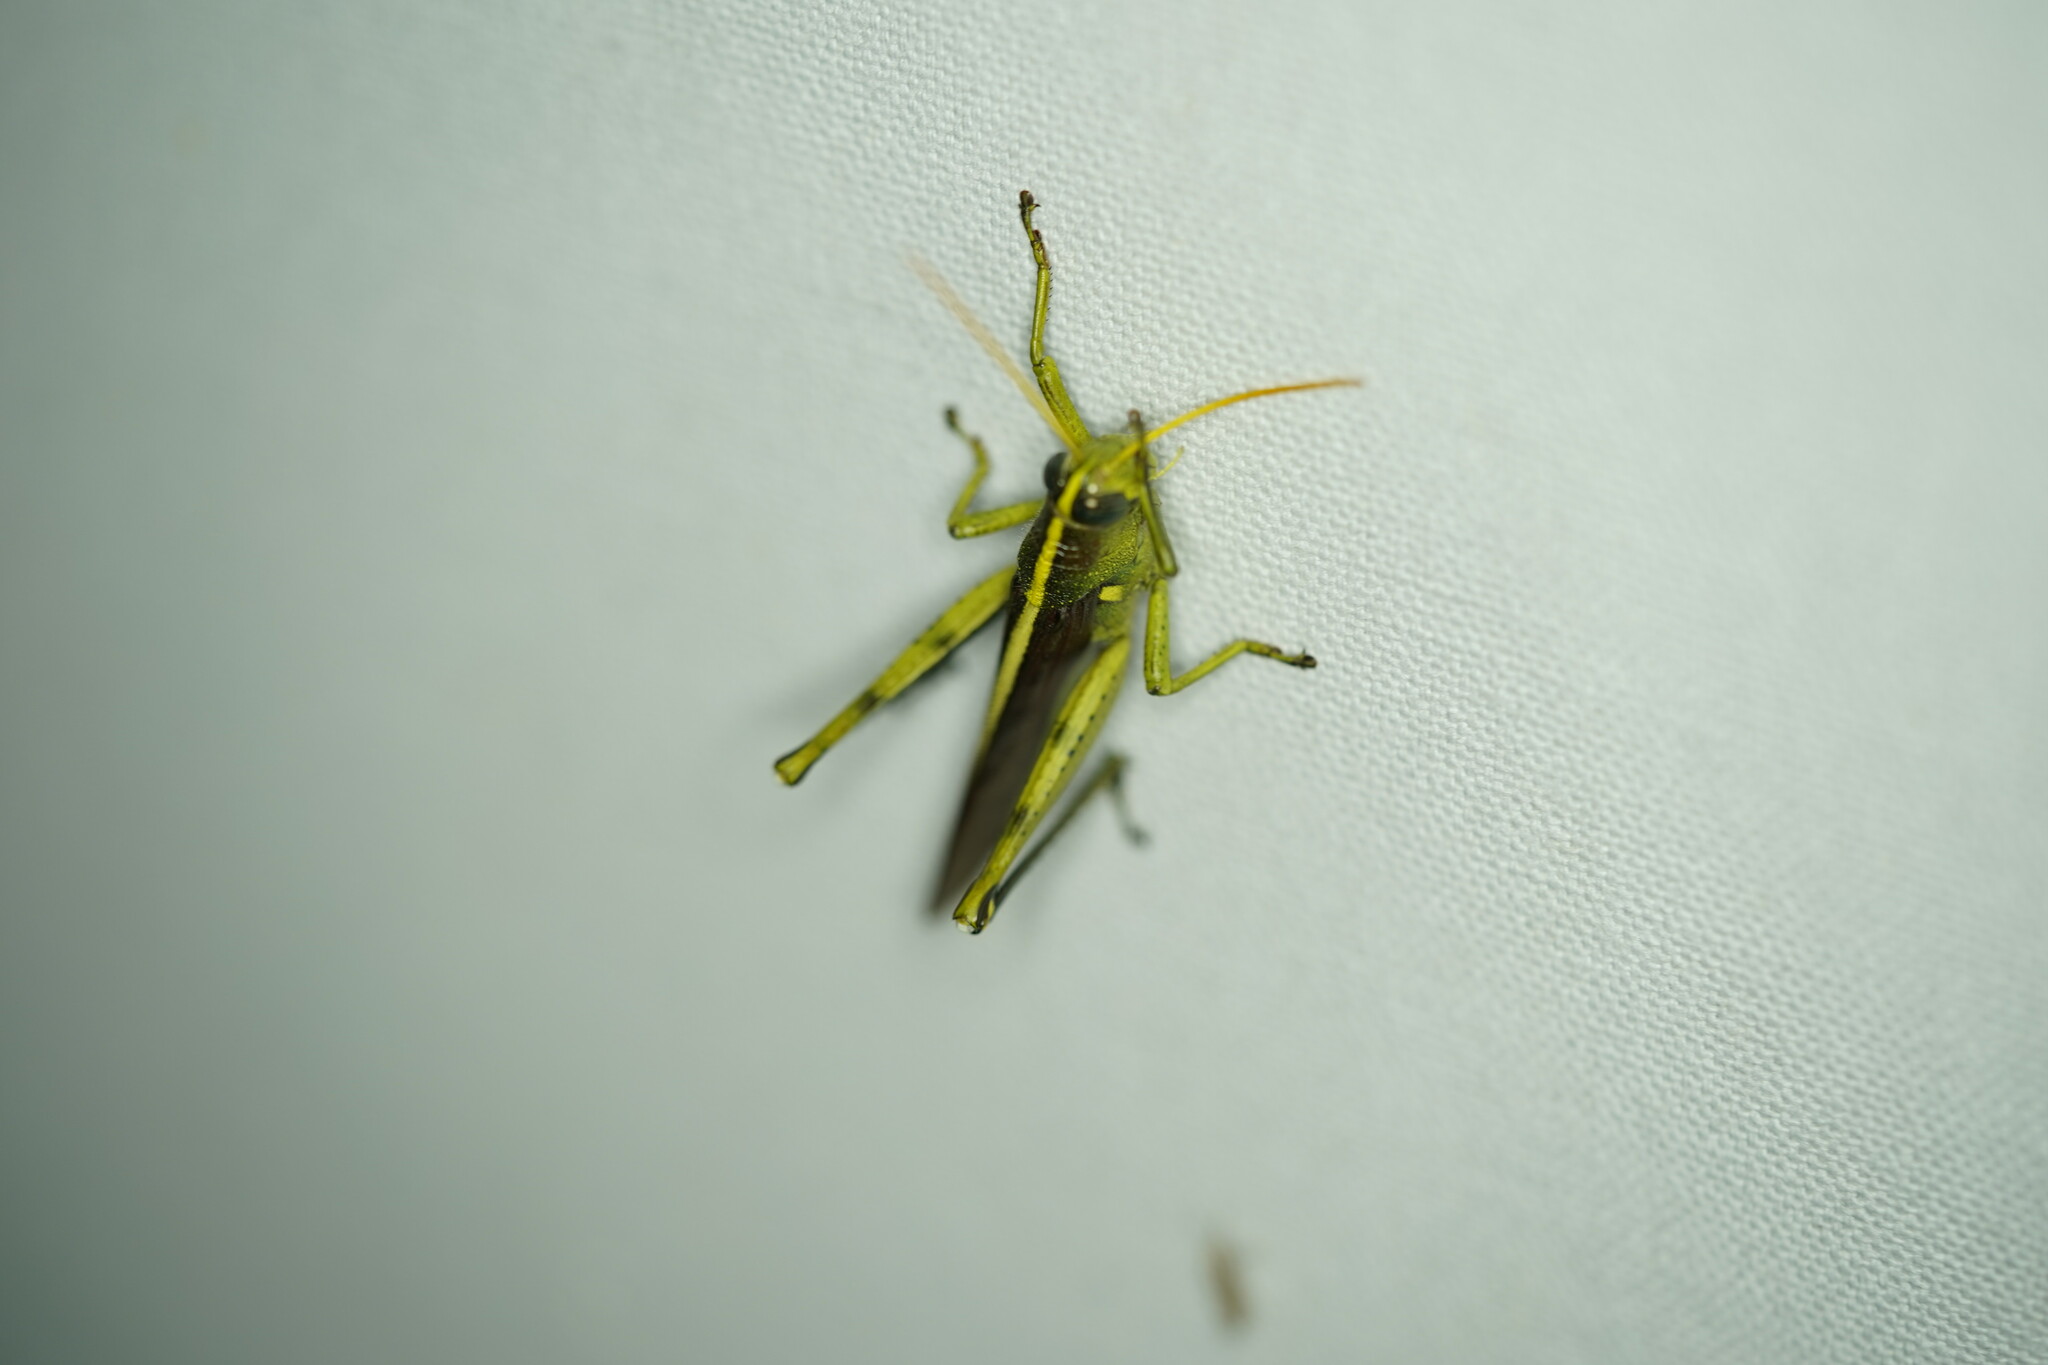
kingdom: Animalia
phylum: Arthropoda
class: Insecta
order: Orthoptera
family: Acrididae
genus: Schistocerca
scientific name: Schistocerca obscura
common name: Obscure bird grasshopper
